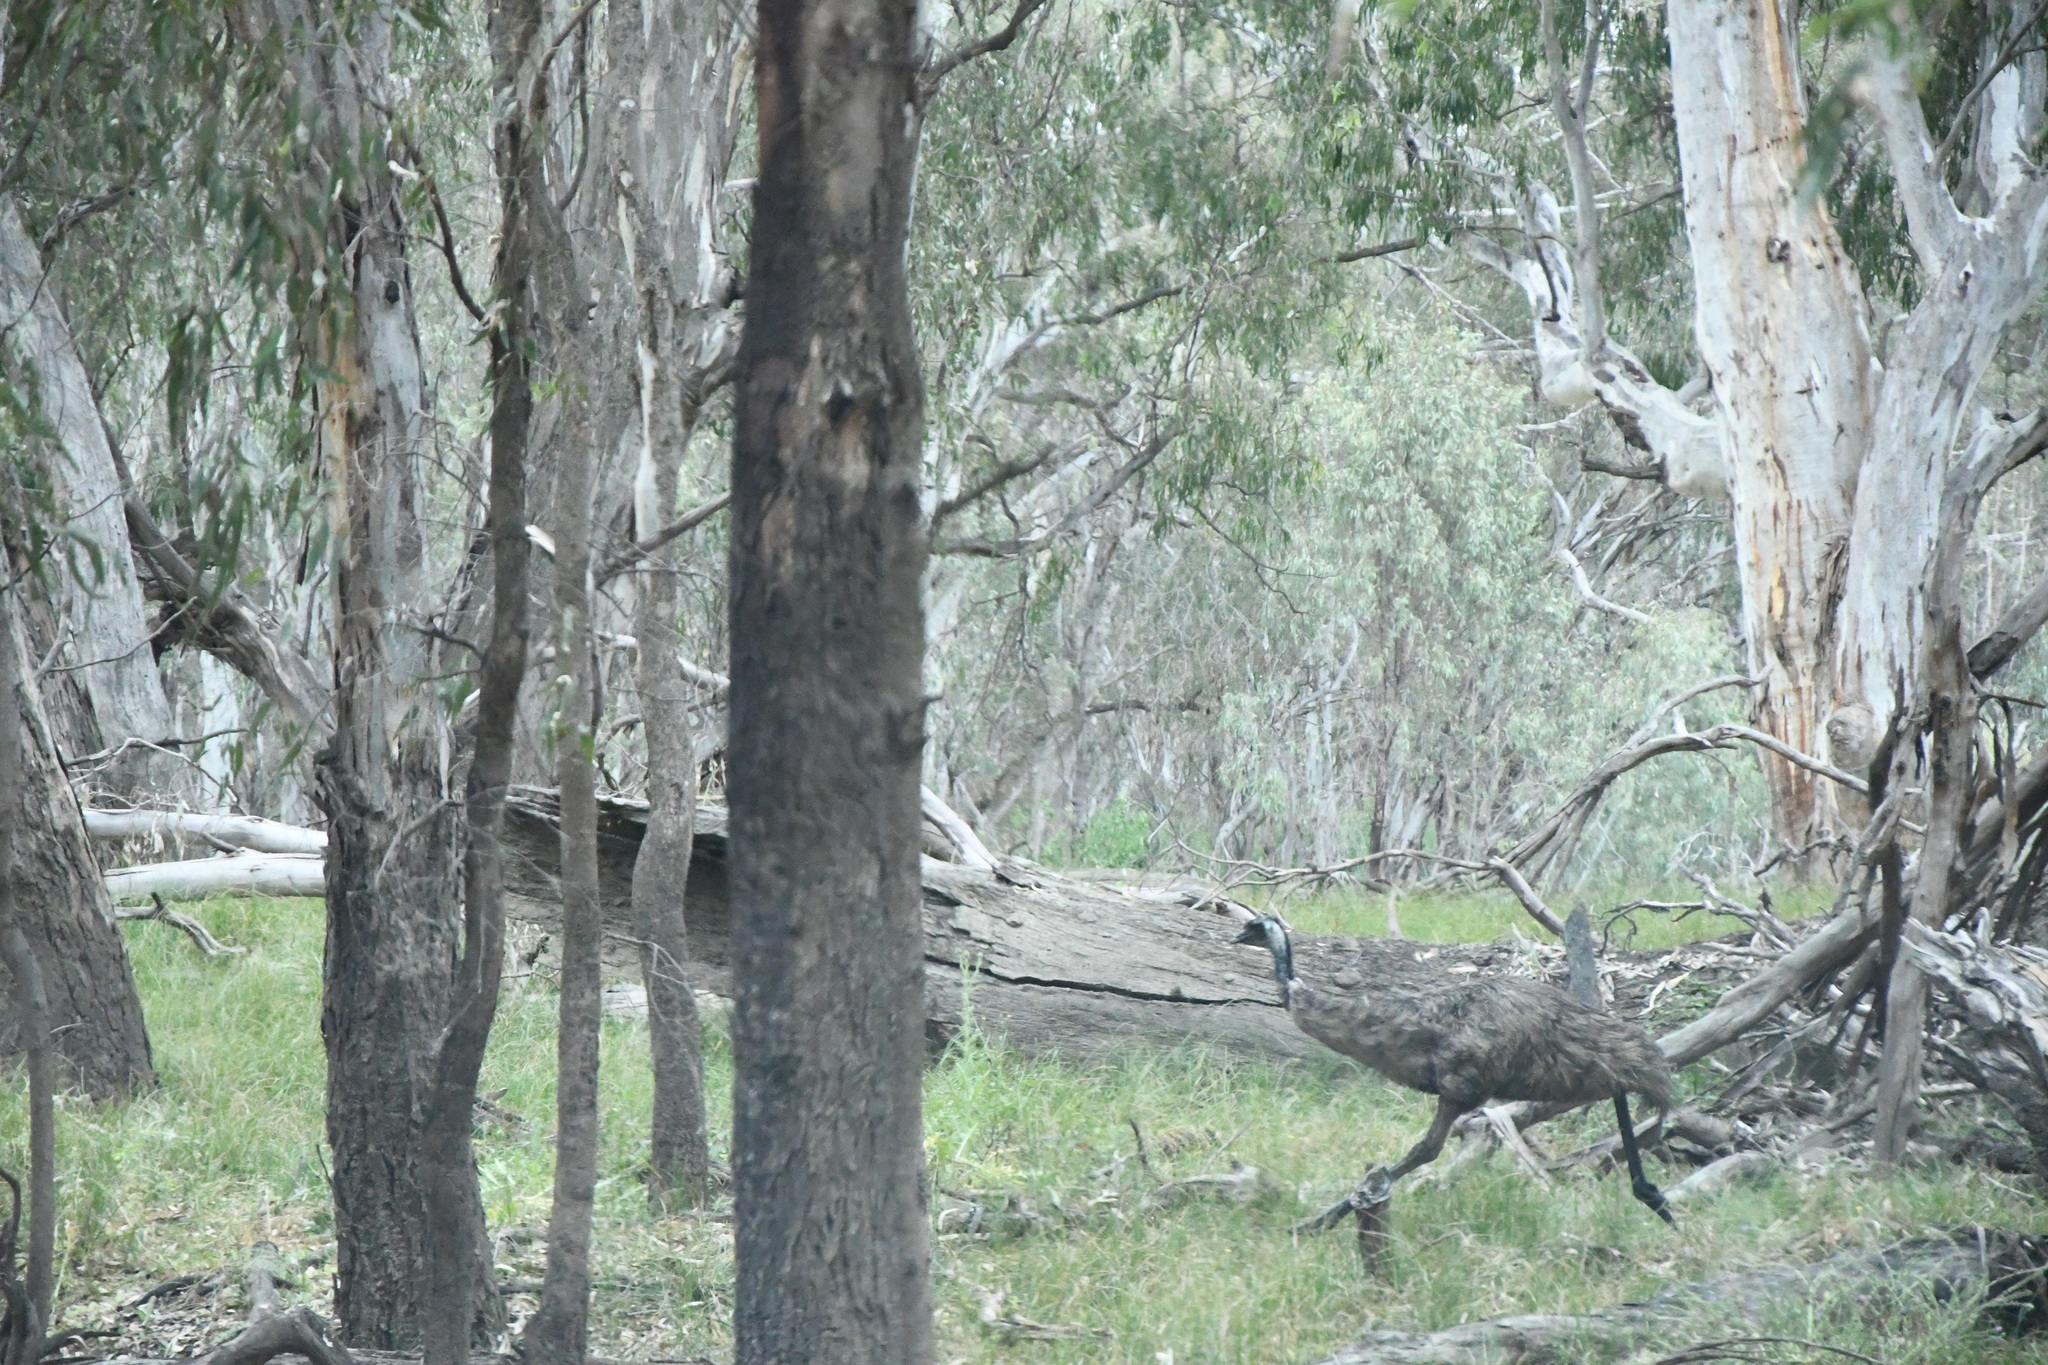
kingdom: Animalia
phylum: Chordata
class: Aves
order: Casuariiformes
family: Dromaiidae
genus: Dromaius
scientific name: Dromaius novaehollandiae
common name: Emu
